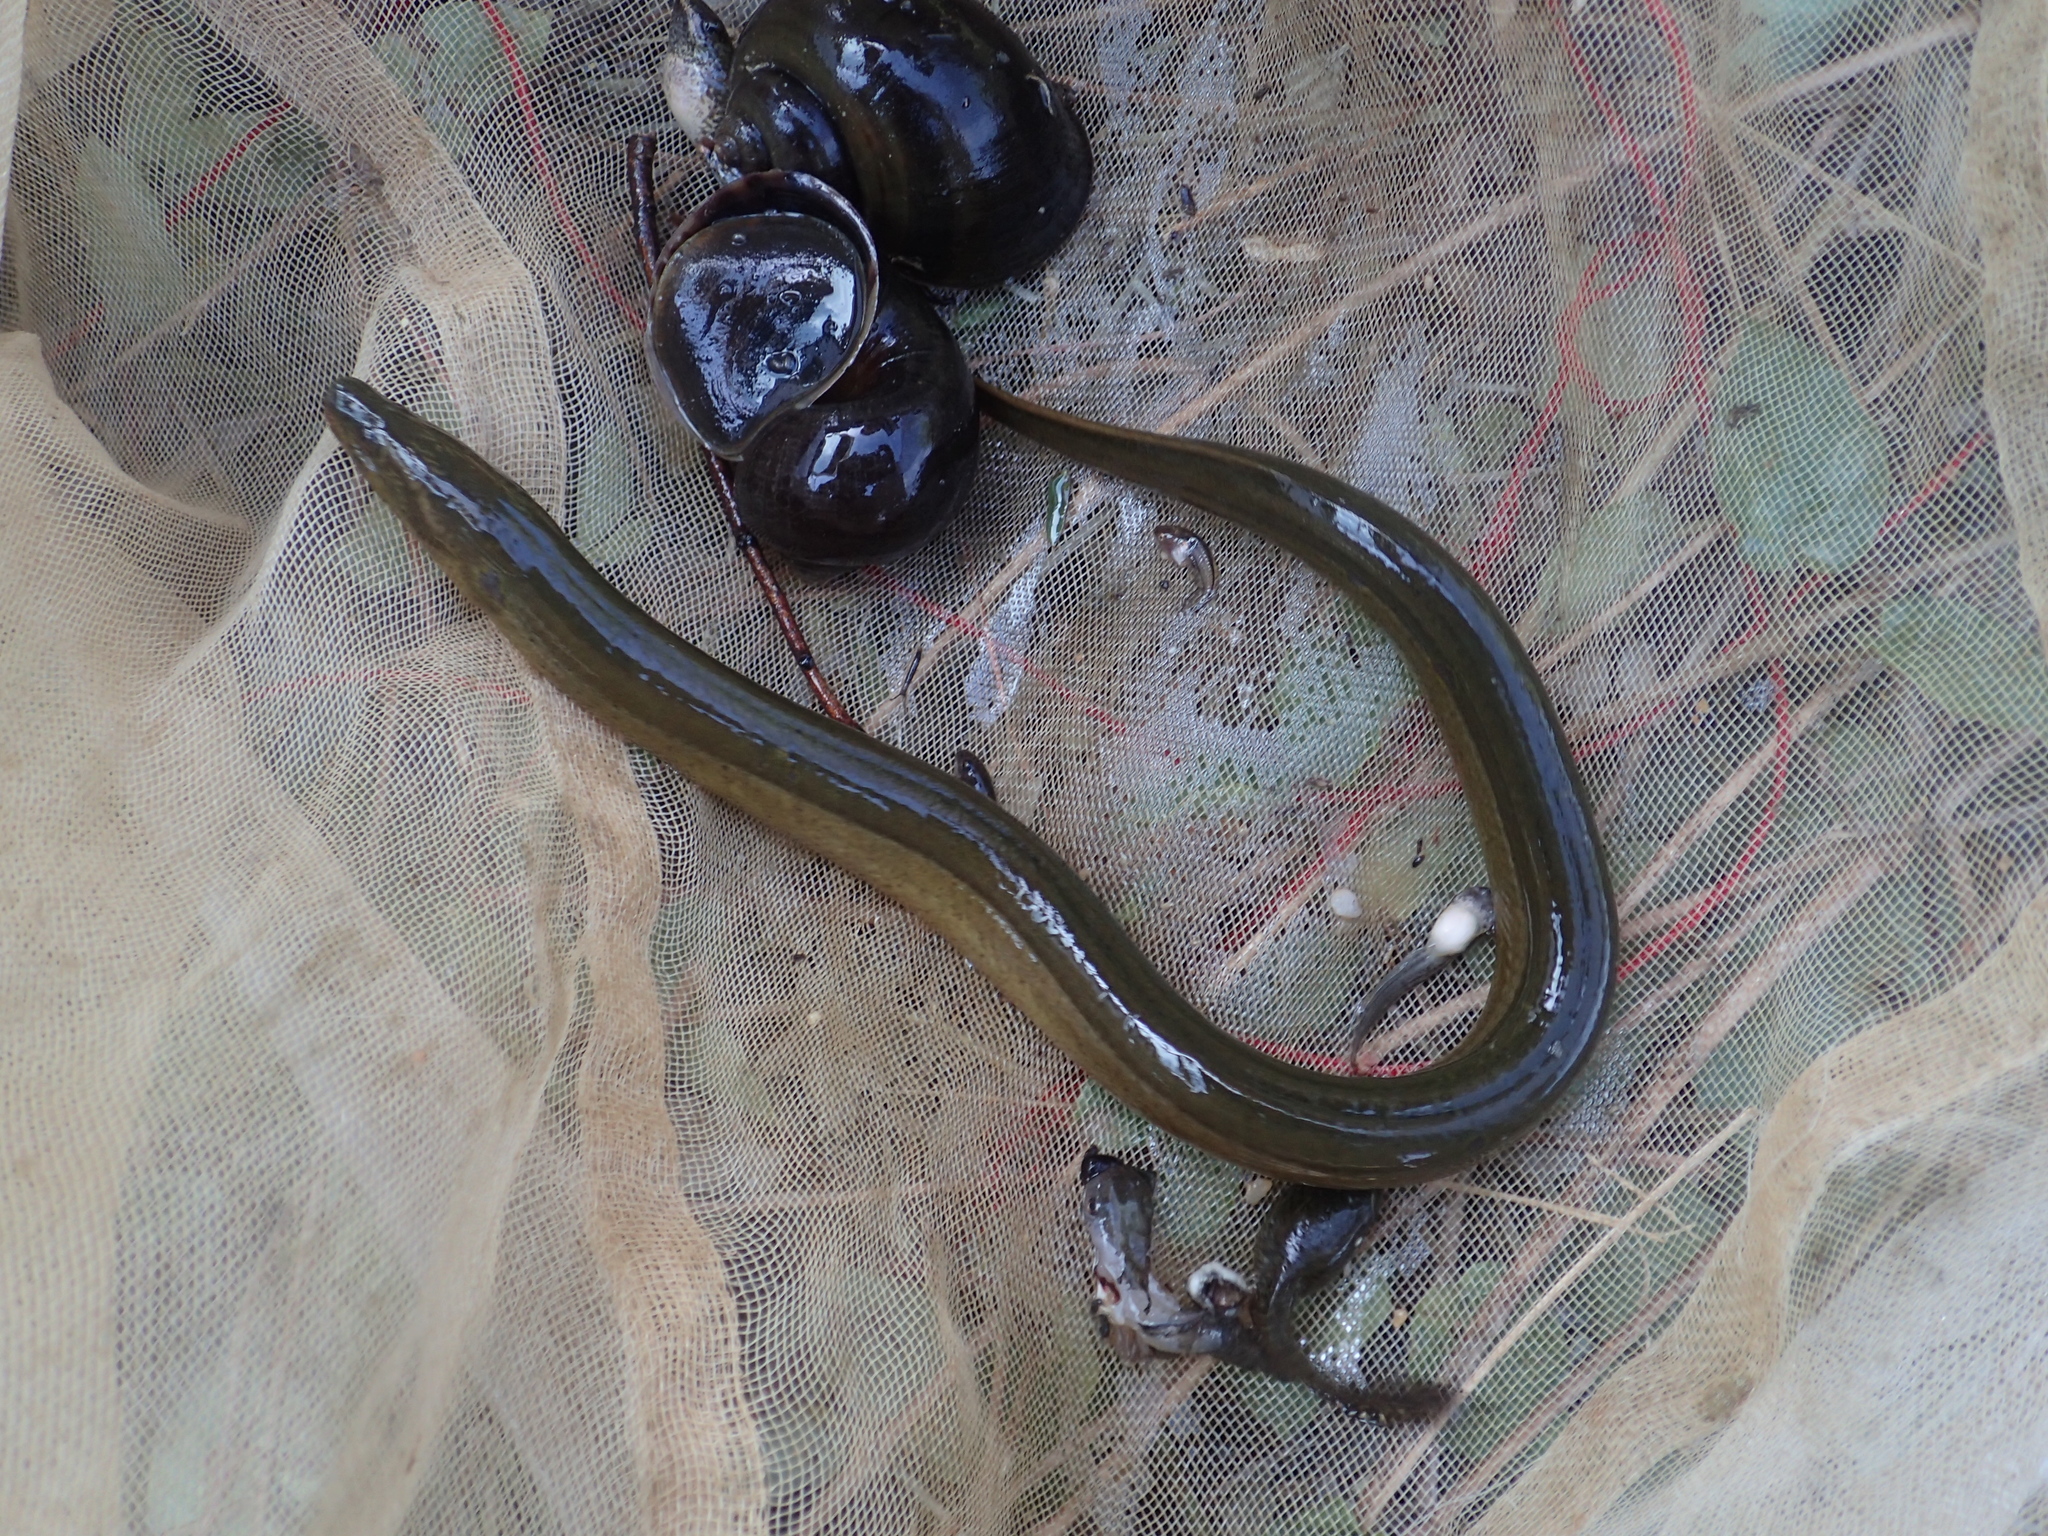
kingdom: Animalia
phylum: Chordata
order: Synbranchiformes
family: Synbranchidae
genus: Monopterus
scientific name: Monopterus albus
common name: Asian swamp eel
